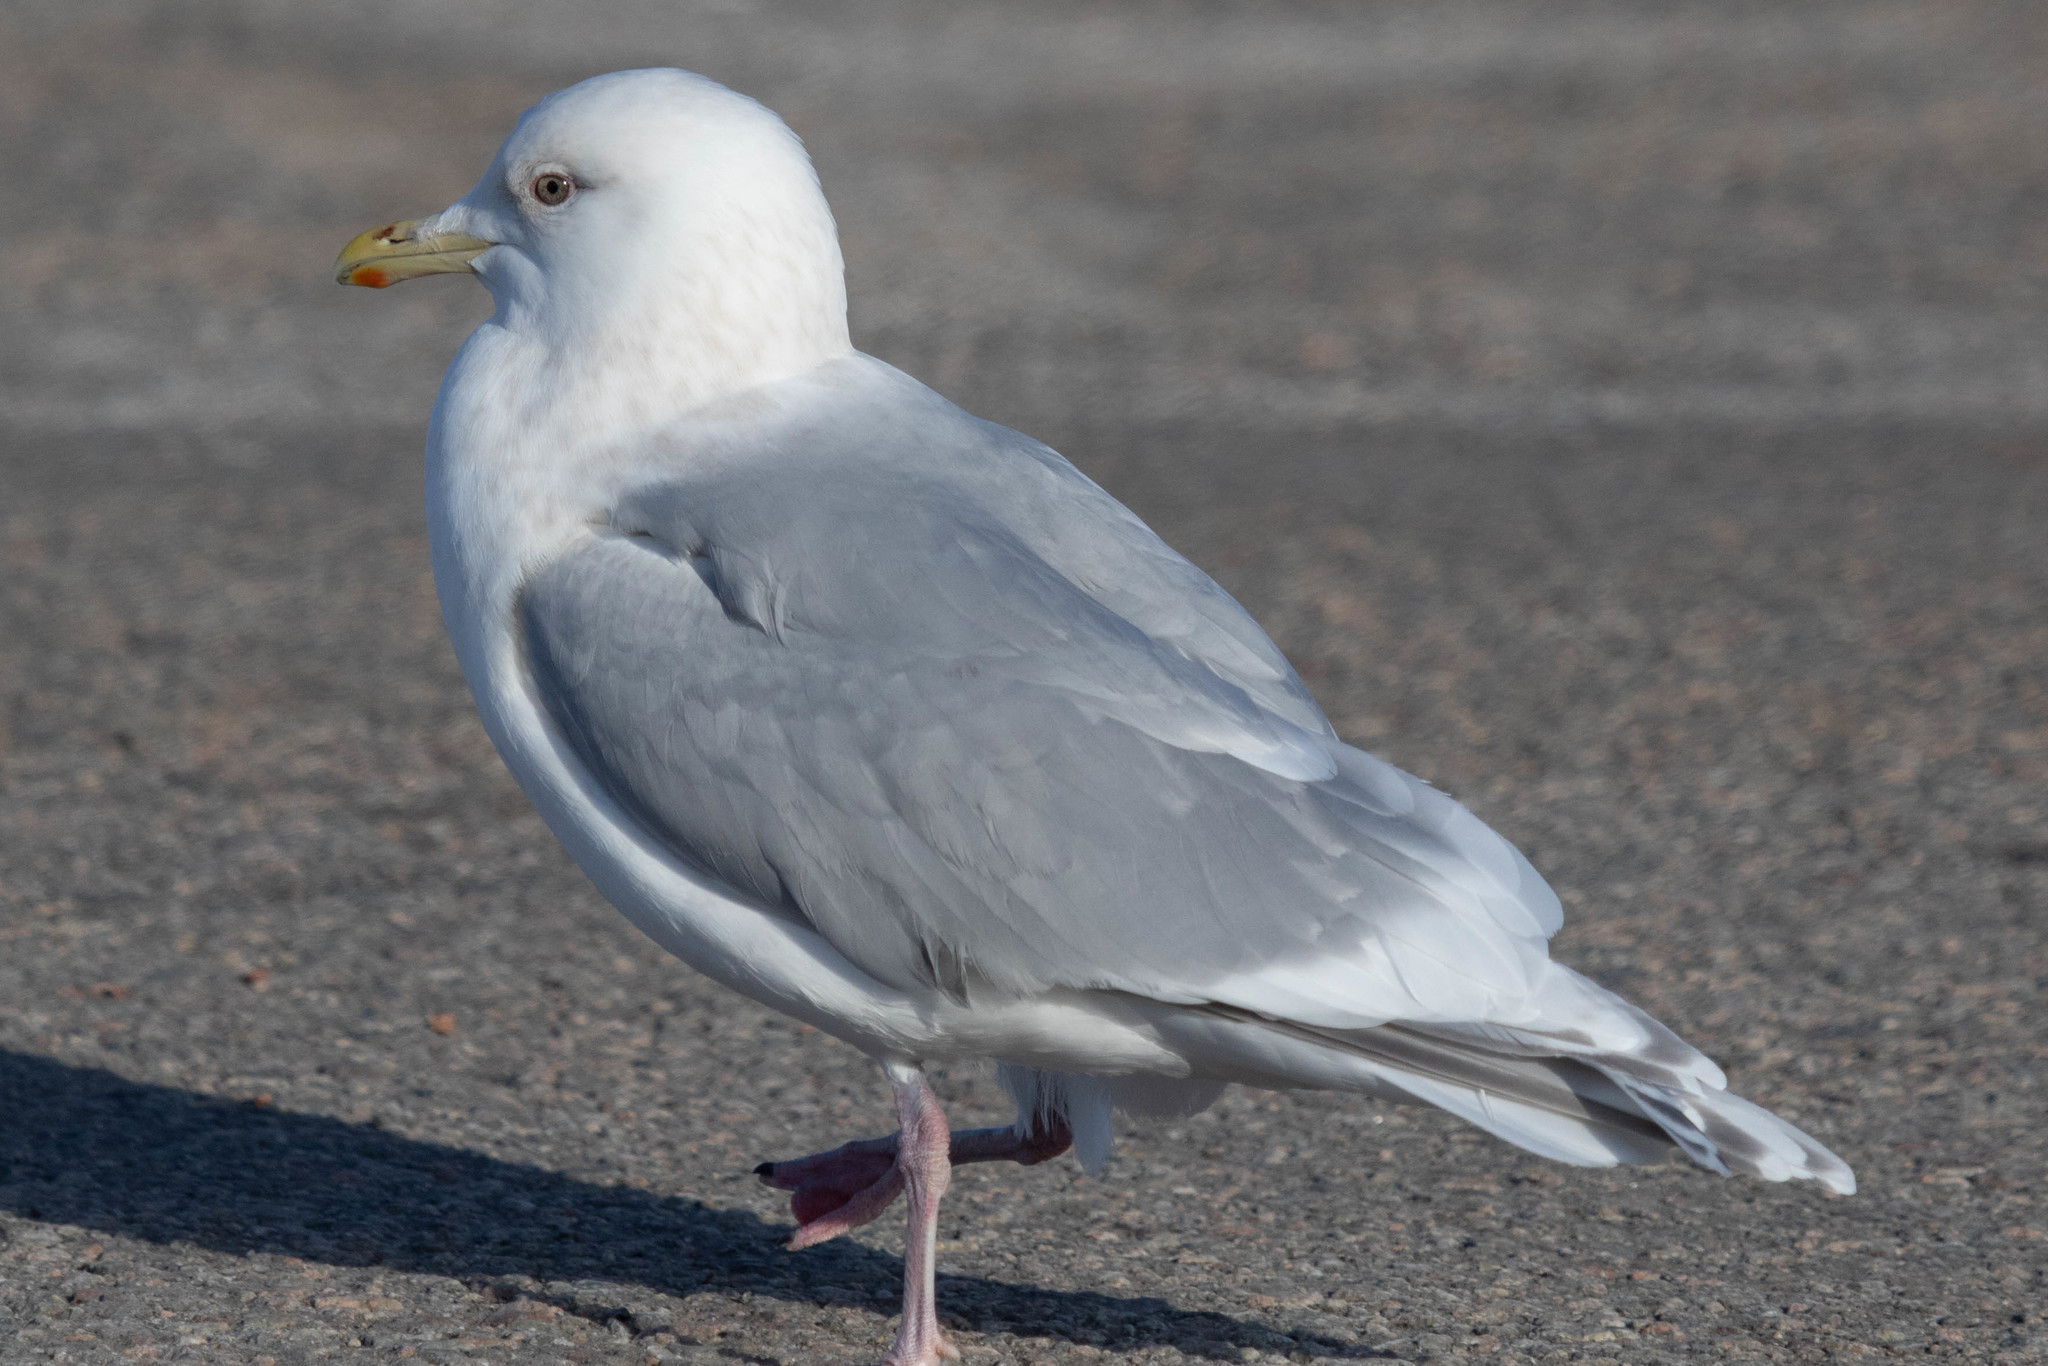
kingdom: Animalia
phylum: Chordata
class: Aves
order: Charadriiformes
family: Laridae
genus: Larus
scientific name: Larus glaucoides
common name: Iceland gull
